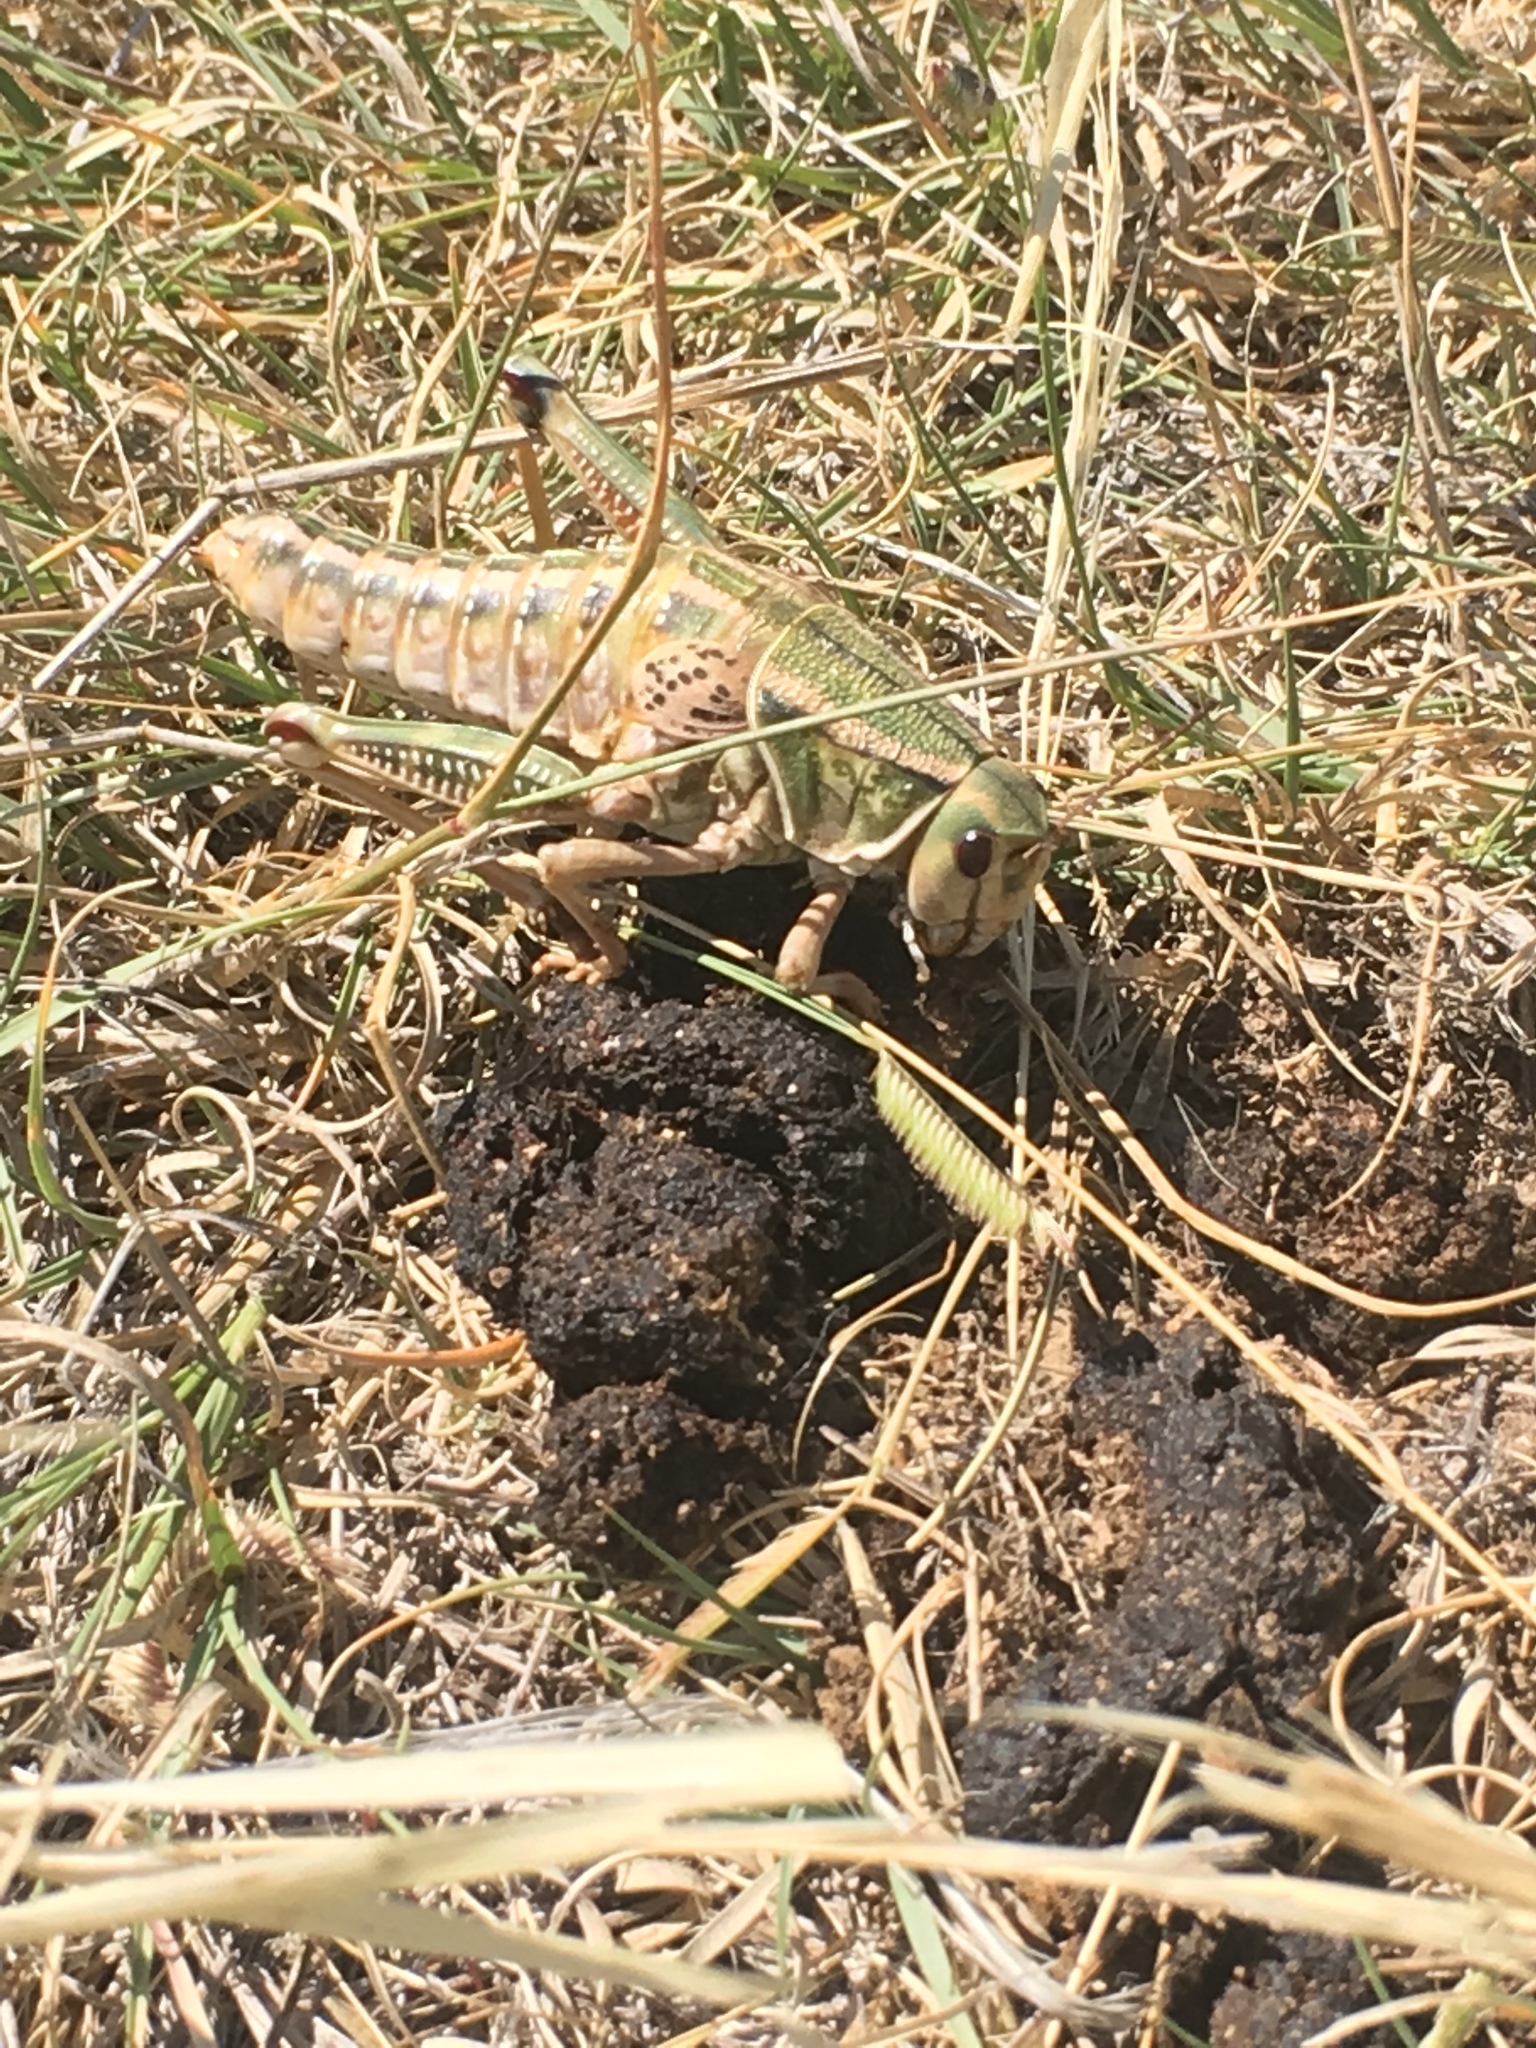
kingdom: Animalia
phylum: Arthropoda
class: Insecta
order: Orthoptera
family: Romaleidae
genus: Brachystola
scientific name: Brachystola magna
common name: Plains lubber grasshopper
